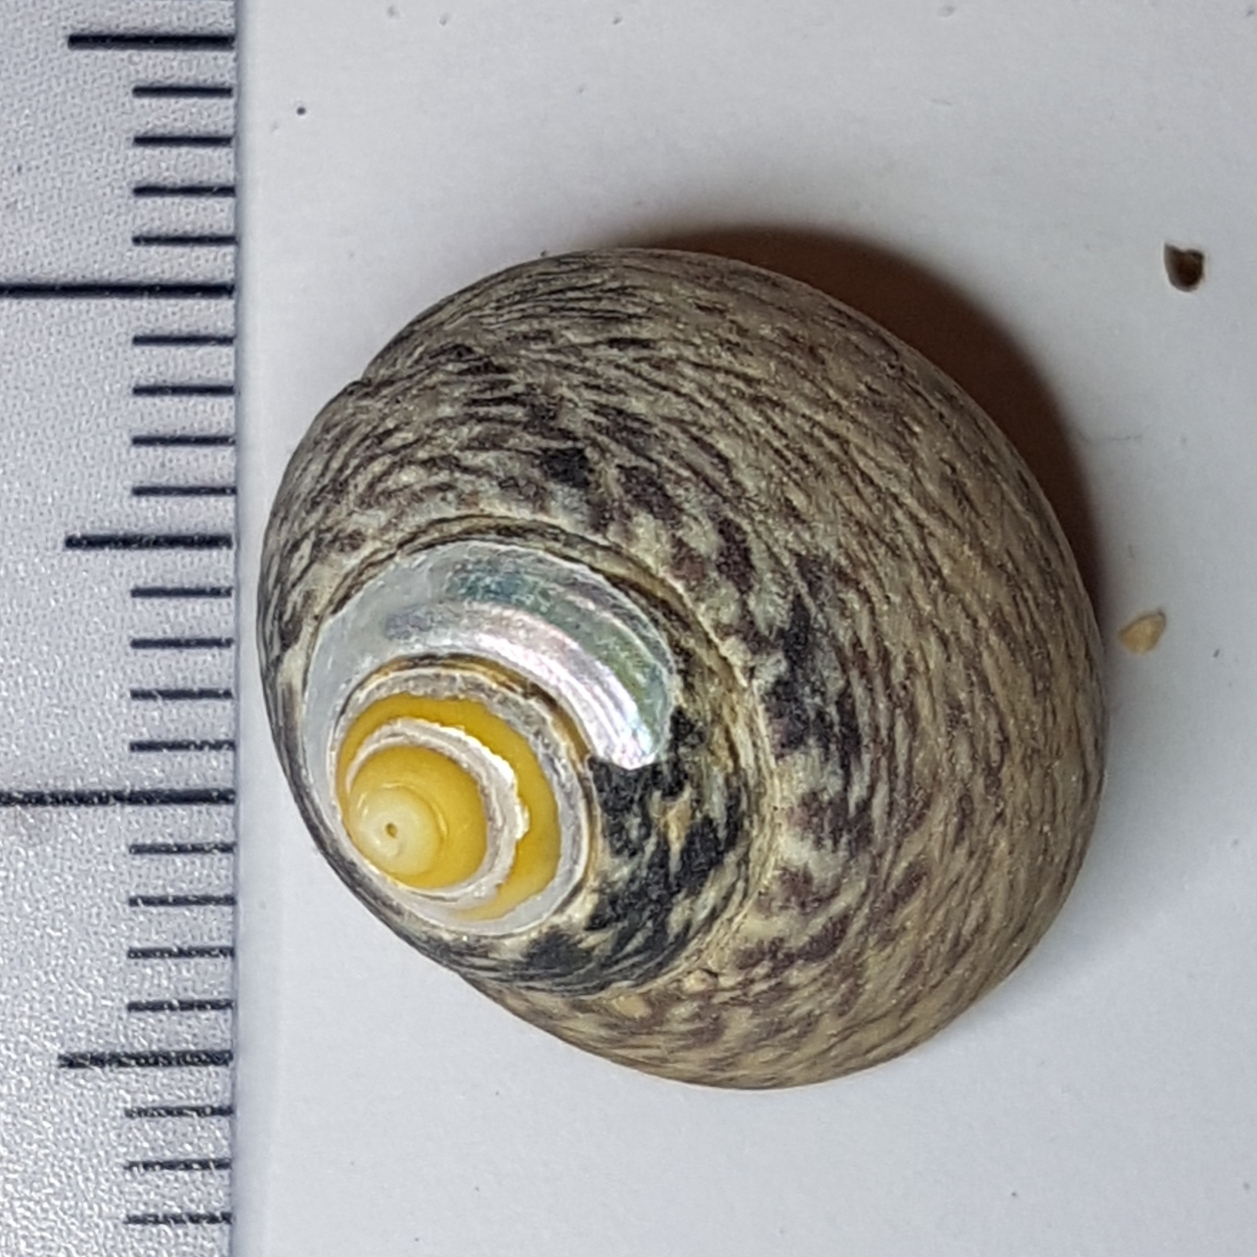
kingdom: Animalia
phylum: Mollusca
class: Gastropoda
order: Trochida
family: Trochidae
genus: Phorcus
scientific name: Phorcus lineatus
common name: Toothed top shell
